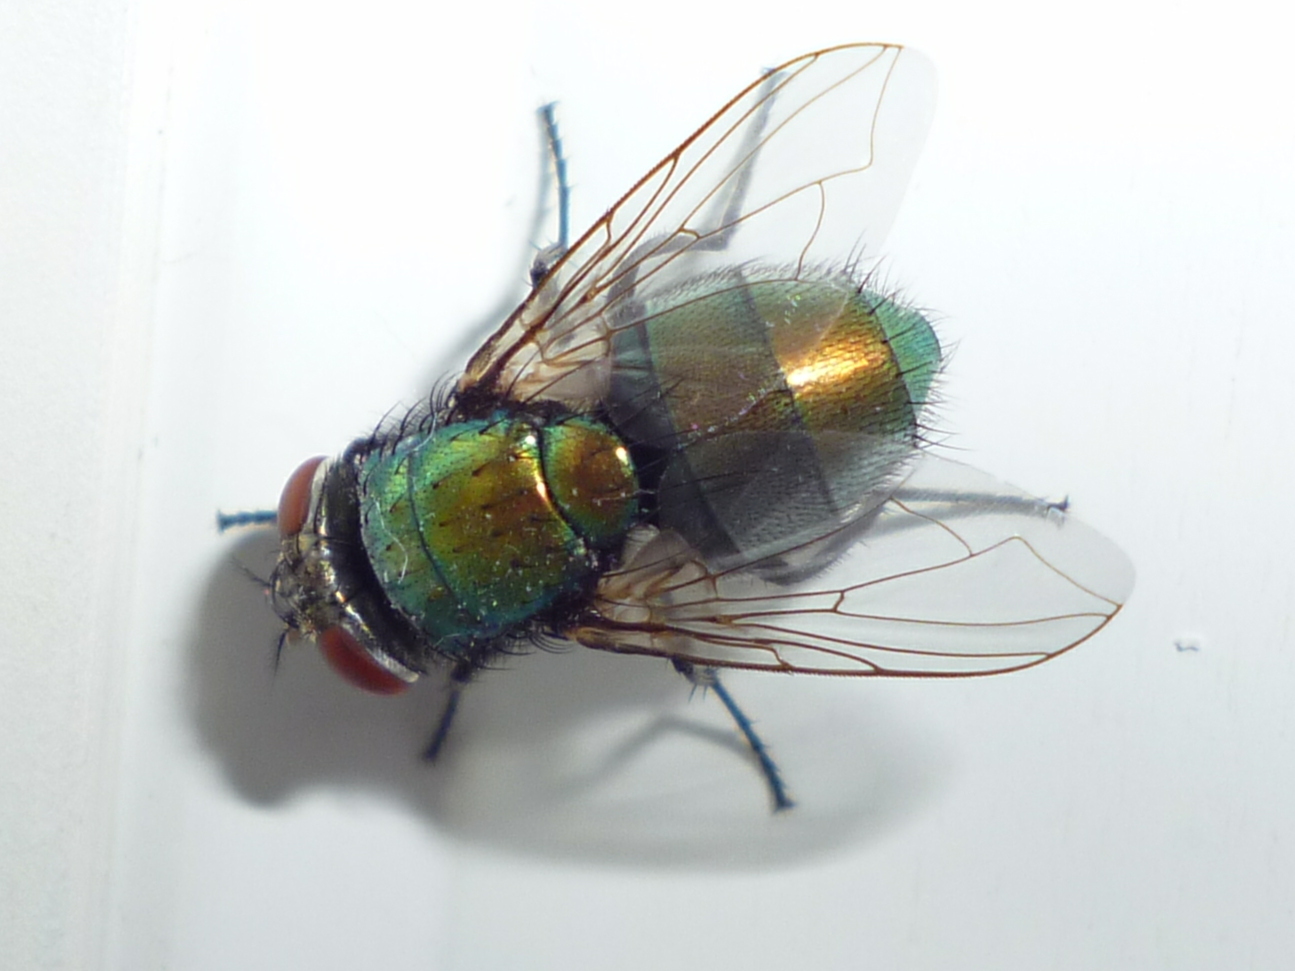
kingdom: Animalia
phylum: Arthropoda
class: Insecta
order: Diptera
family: Calliphoridae
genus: Lucilia
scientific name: Lucilia sericata
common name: Blow fly
